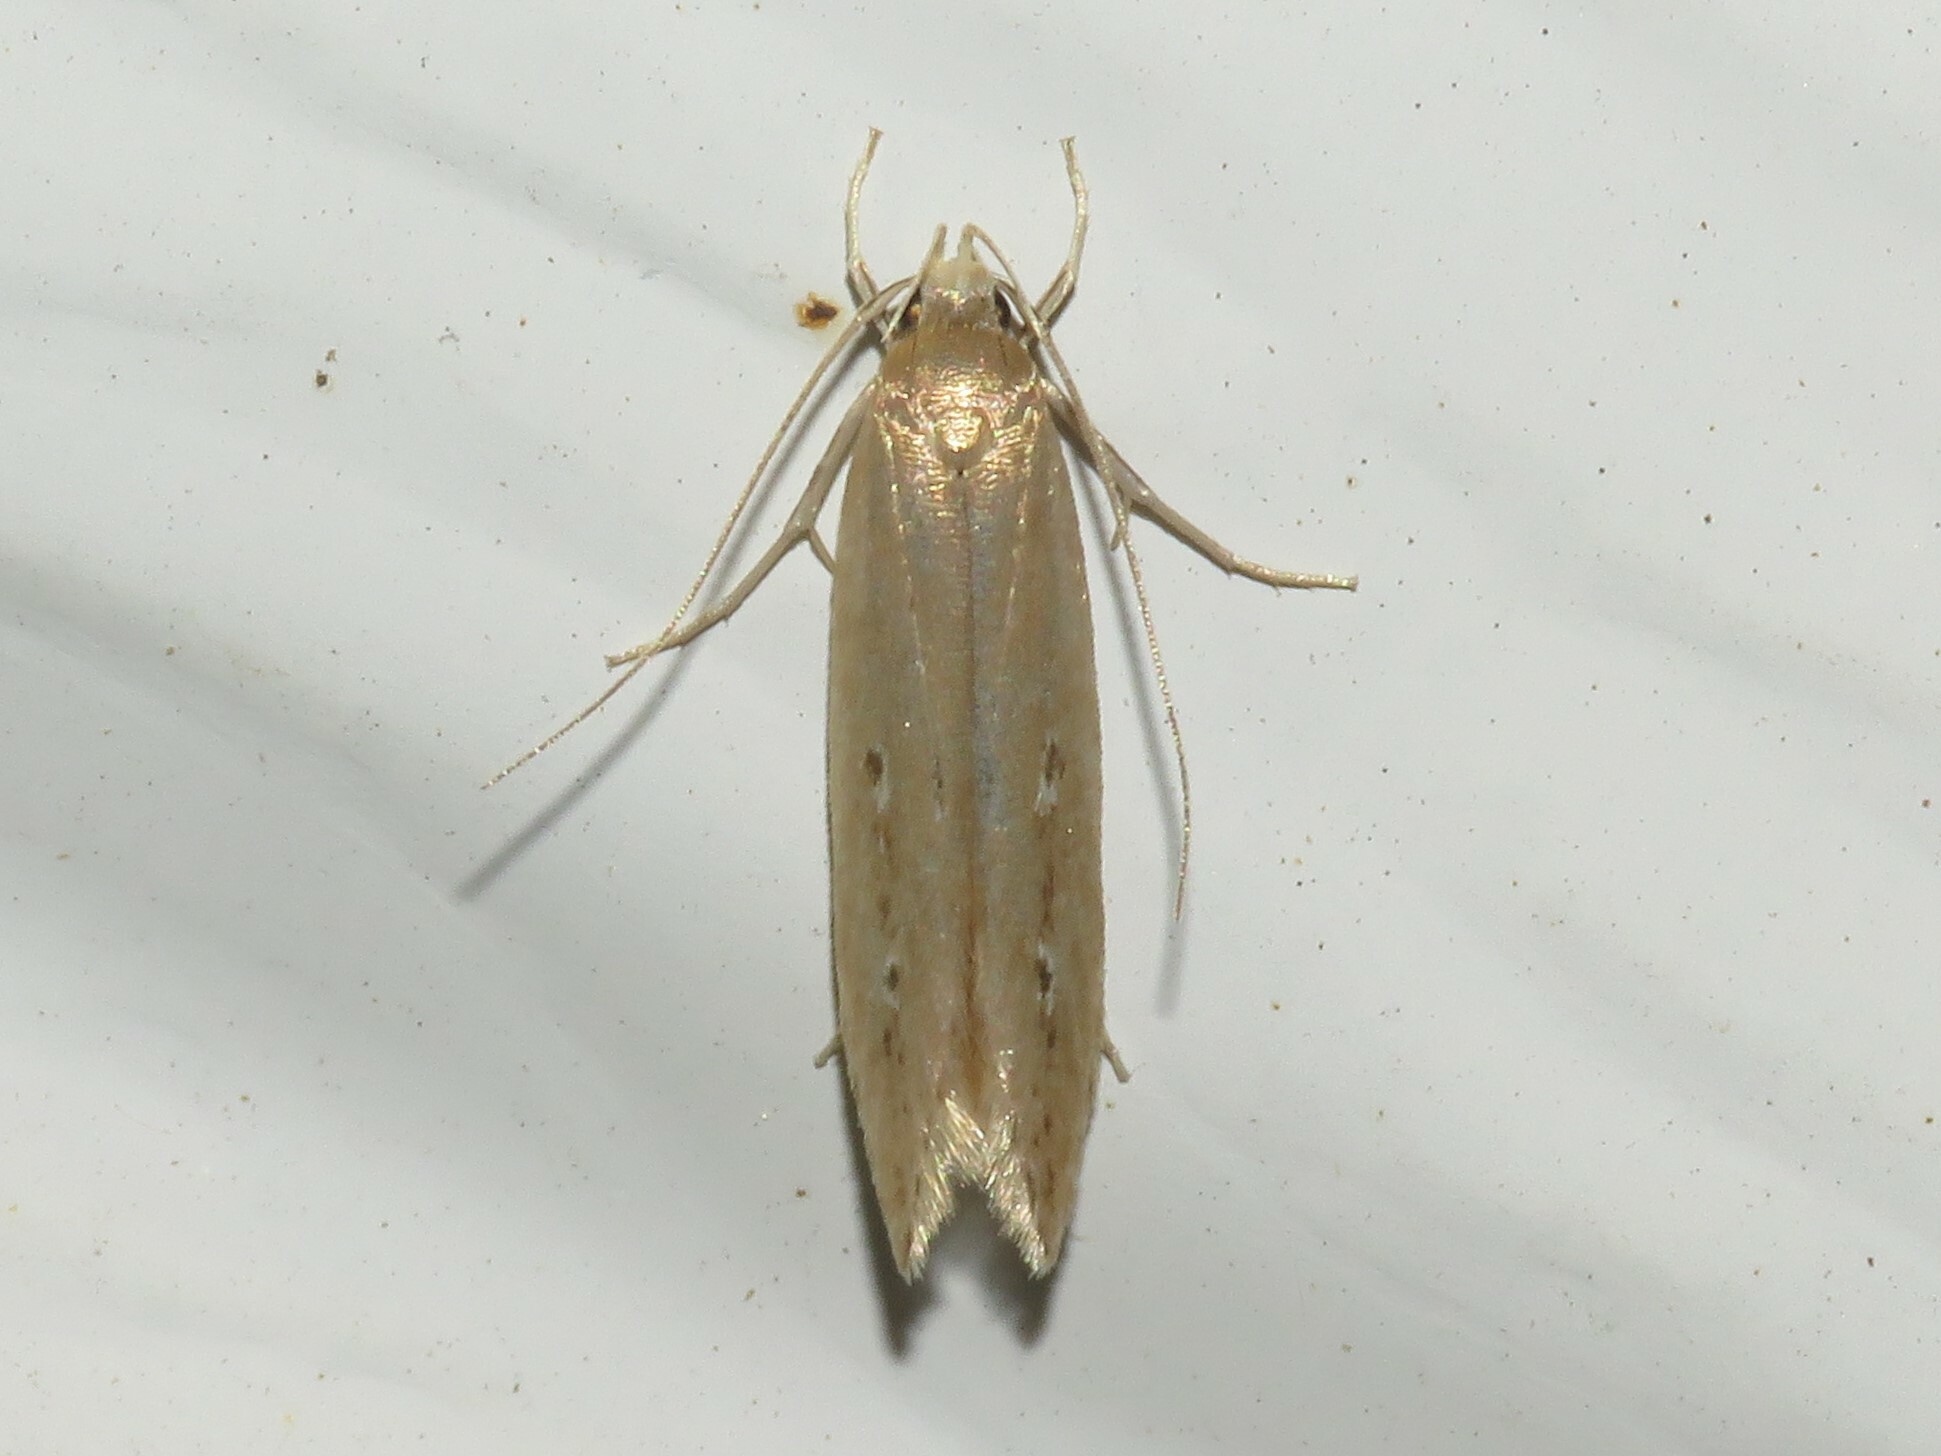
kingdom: Animalia
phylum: Arthropoda
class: Insecta
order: Lepidoptera
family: Cosmopterigidae
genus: Limnaecia
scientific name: Limnaecia phragmitella
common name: Bulrush cosmet
